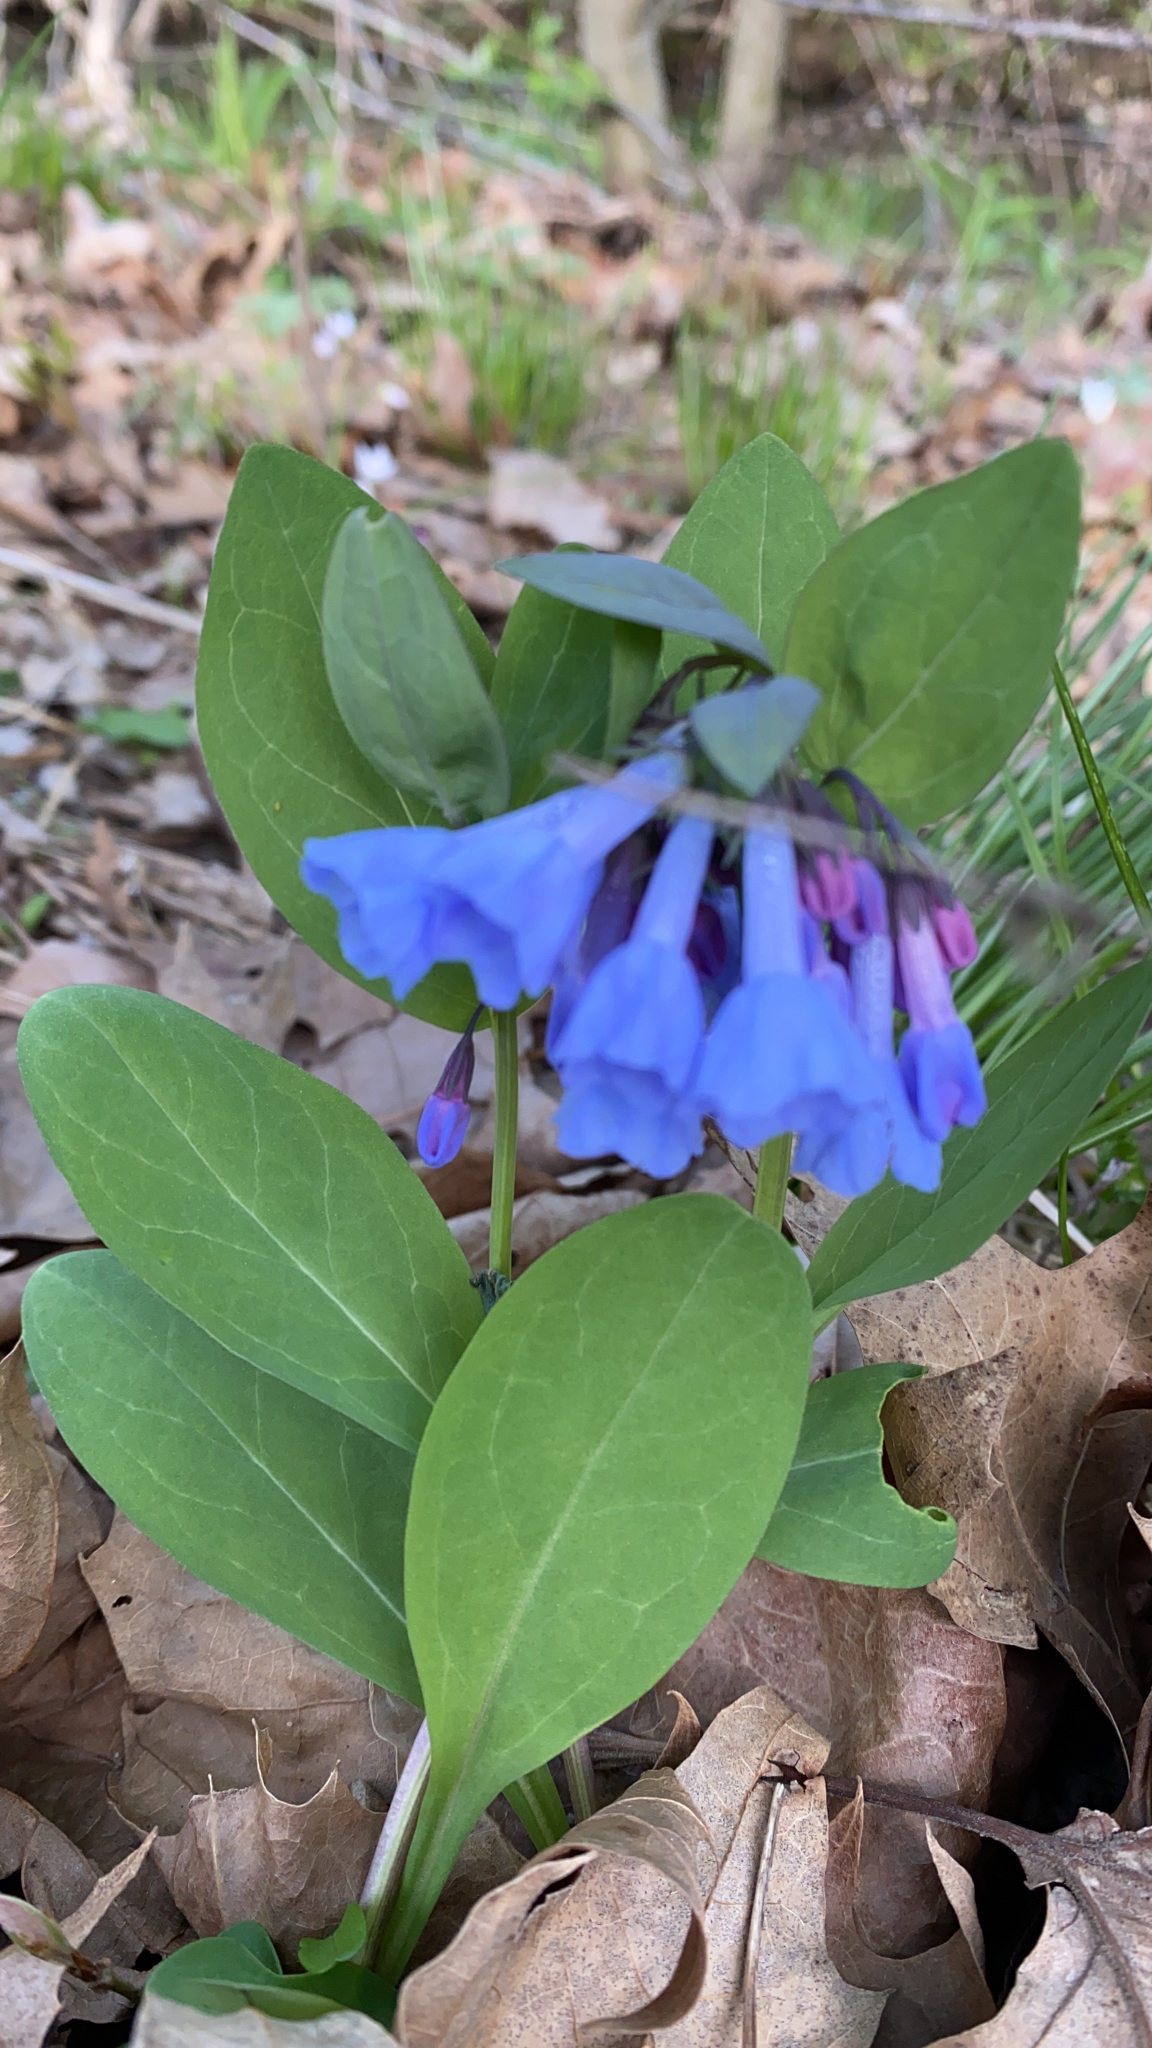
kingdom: Plantae
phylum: Tracheophyta
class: Magnoliopsida
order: Boraginales
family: Boraginaceae
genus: Mertensia
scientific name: Mertensia virginica
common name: Virginia bluebells
